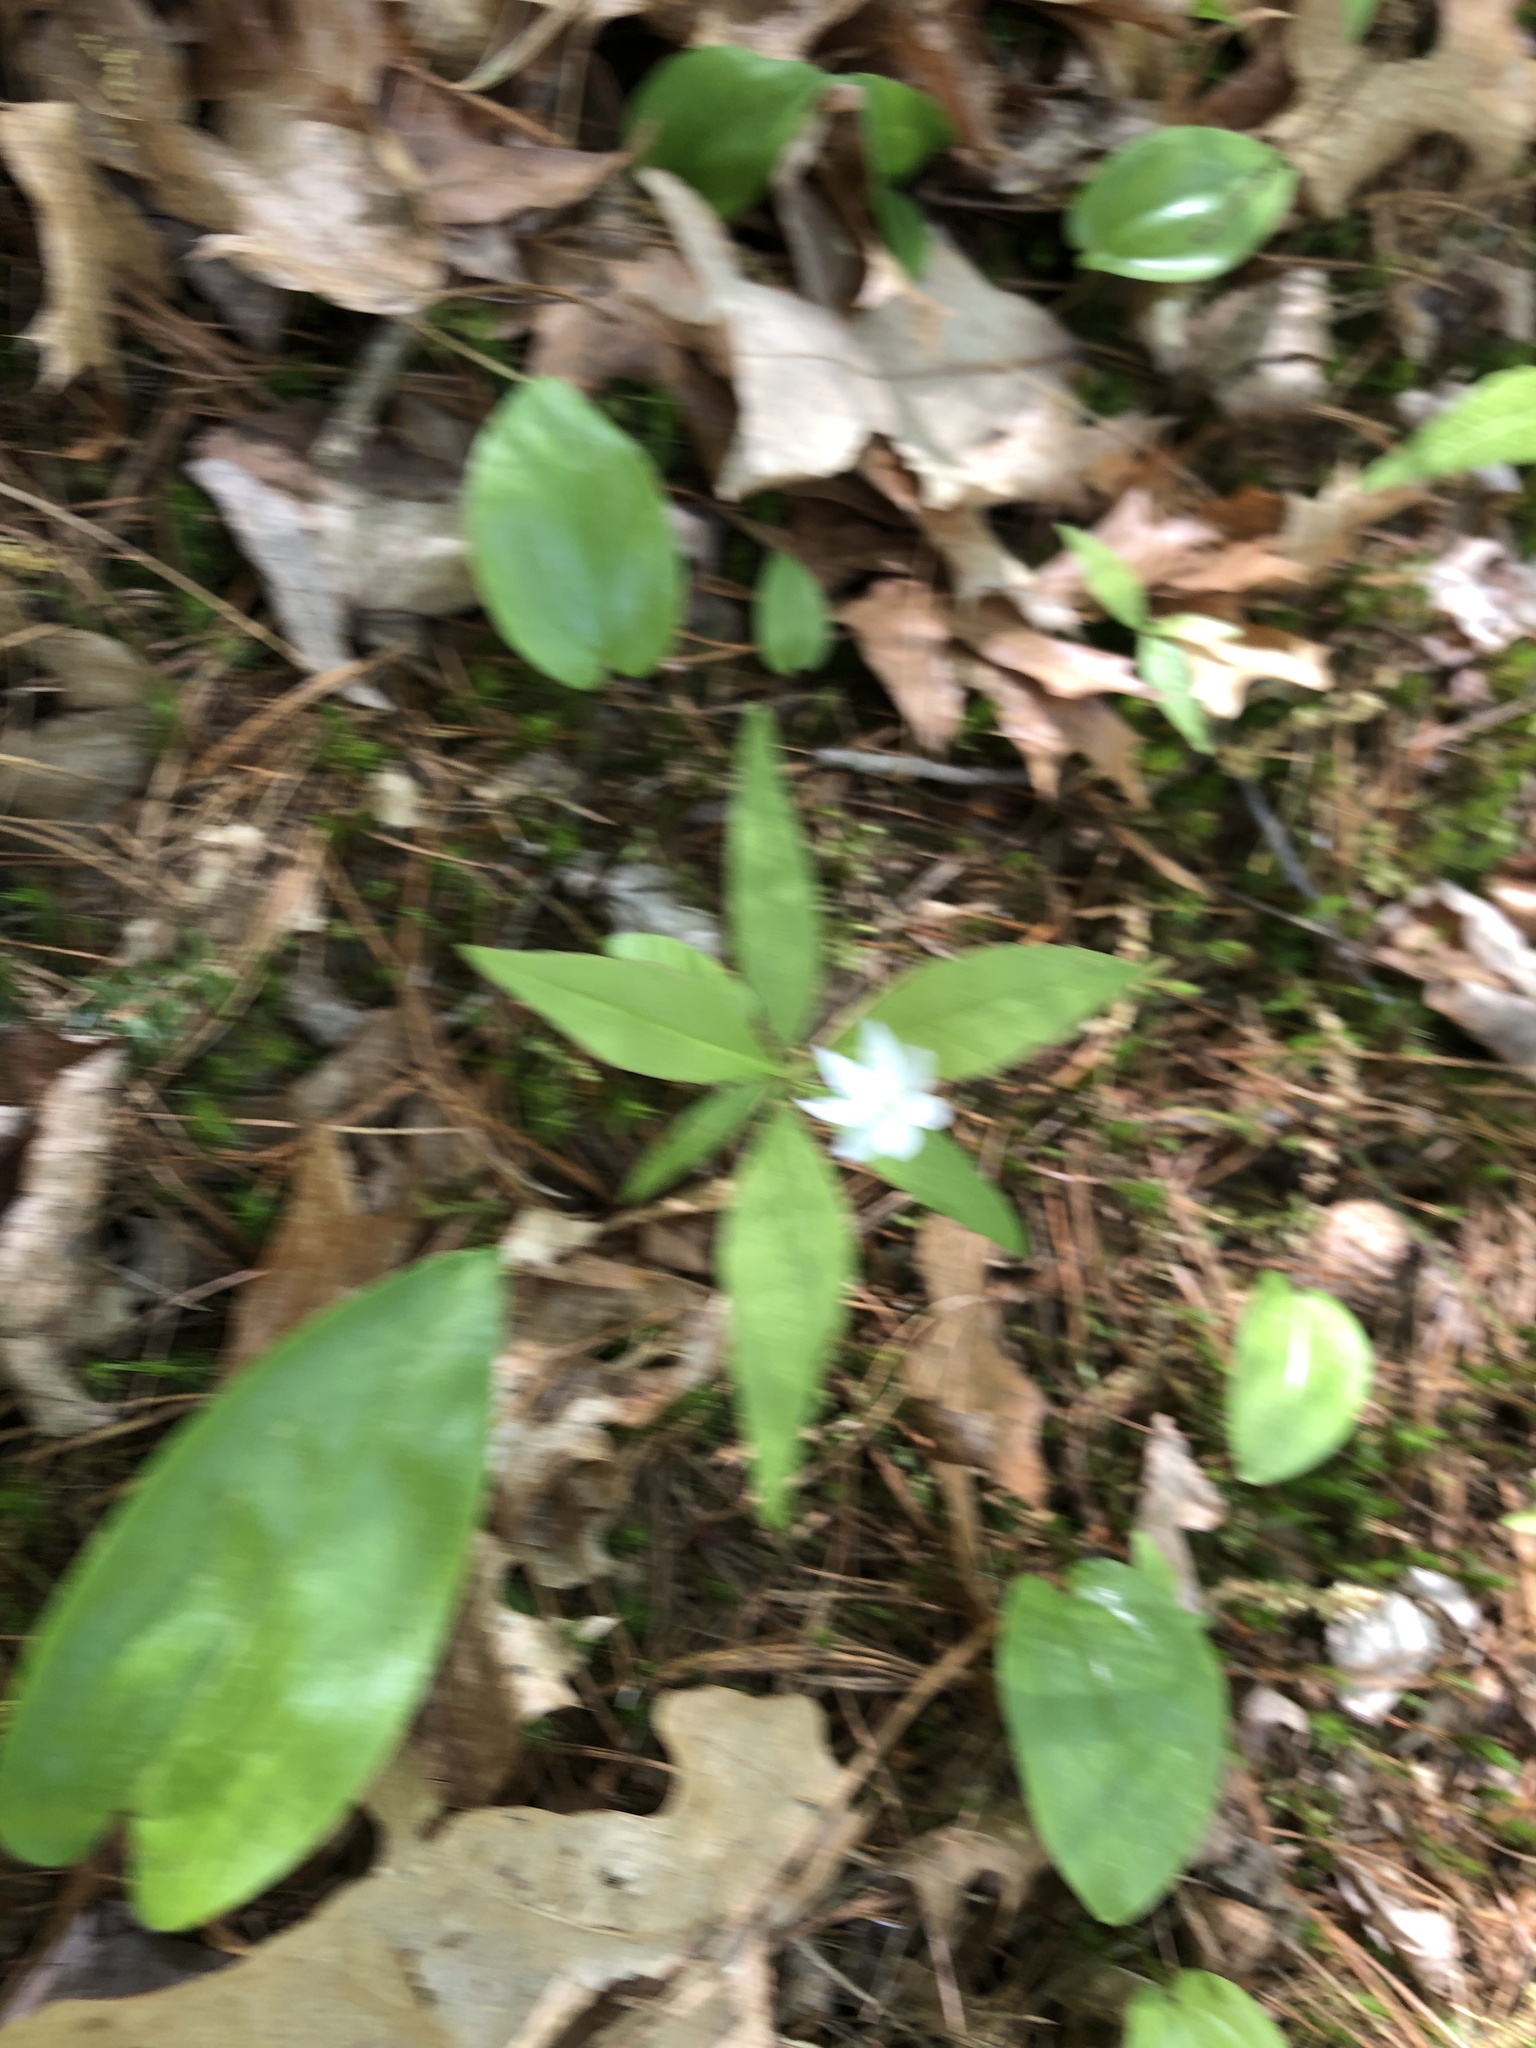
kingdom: Plantae
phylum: Tracheophyta
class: Magnoliopsida
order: Ericales
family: Primulaceae
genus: Lysimachia
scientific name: Lysimachia borealis
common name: American starflower
